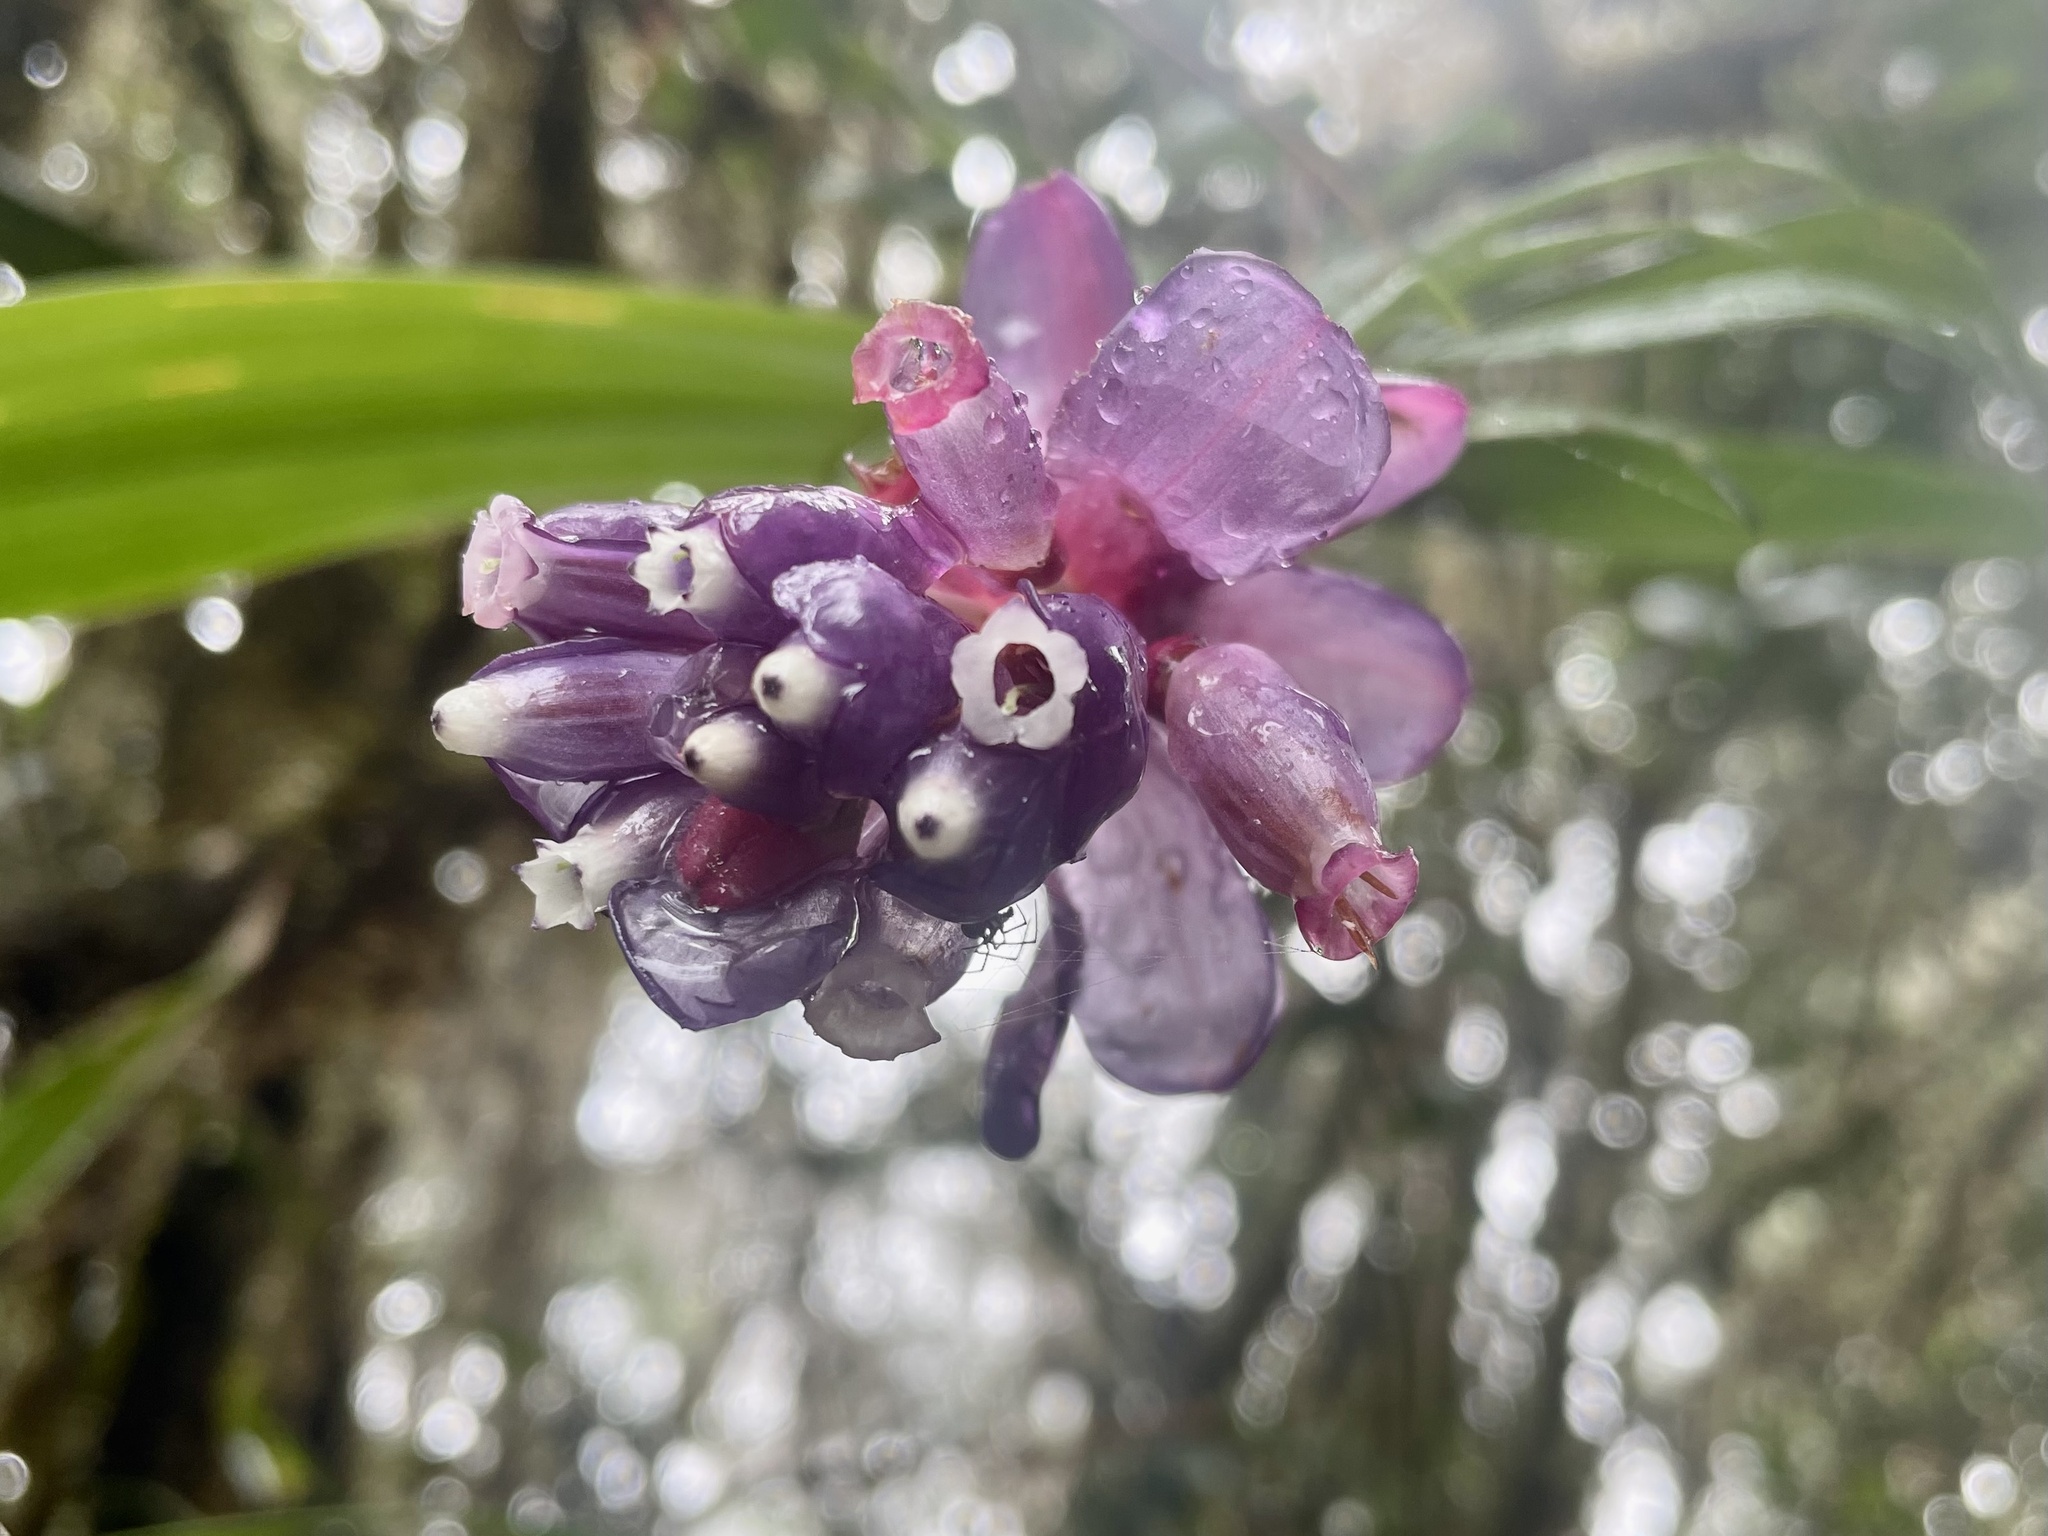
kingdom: Plantae
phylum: Tracheophyta
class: Magnoliopsida
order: Ericales
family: Ericaceae
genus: Cavendishia
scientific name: Cavendishia angustifolia
